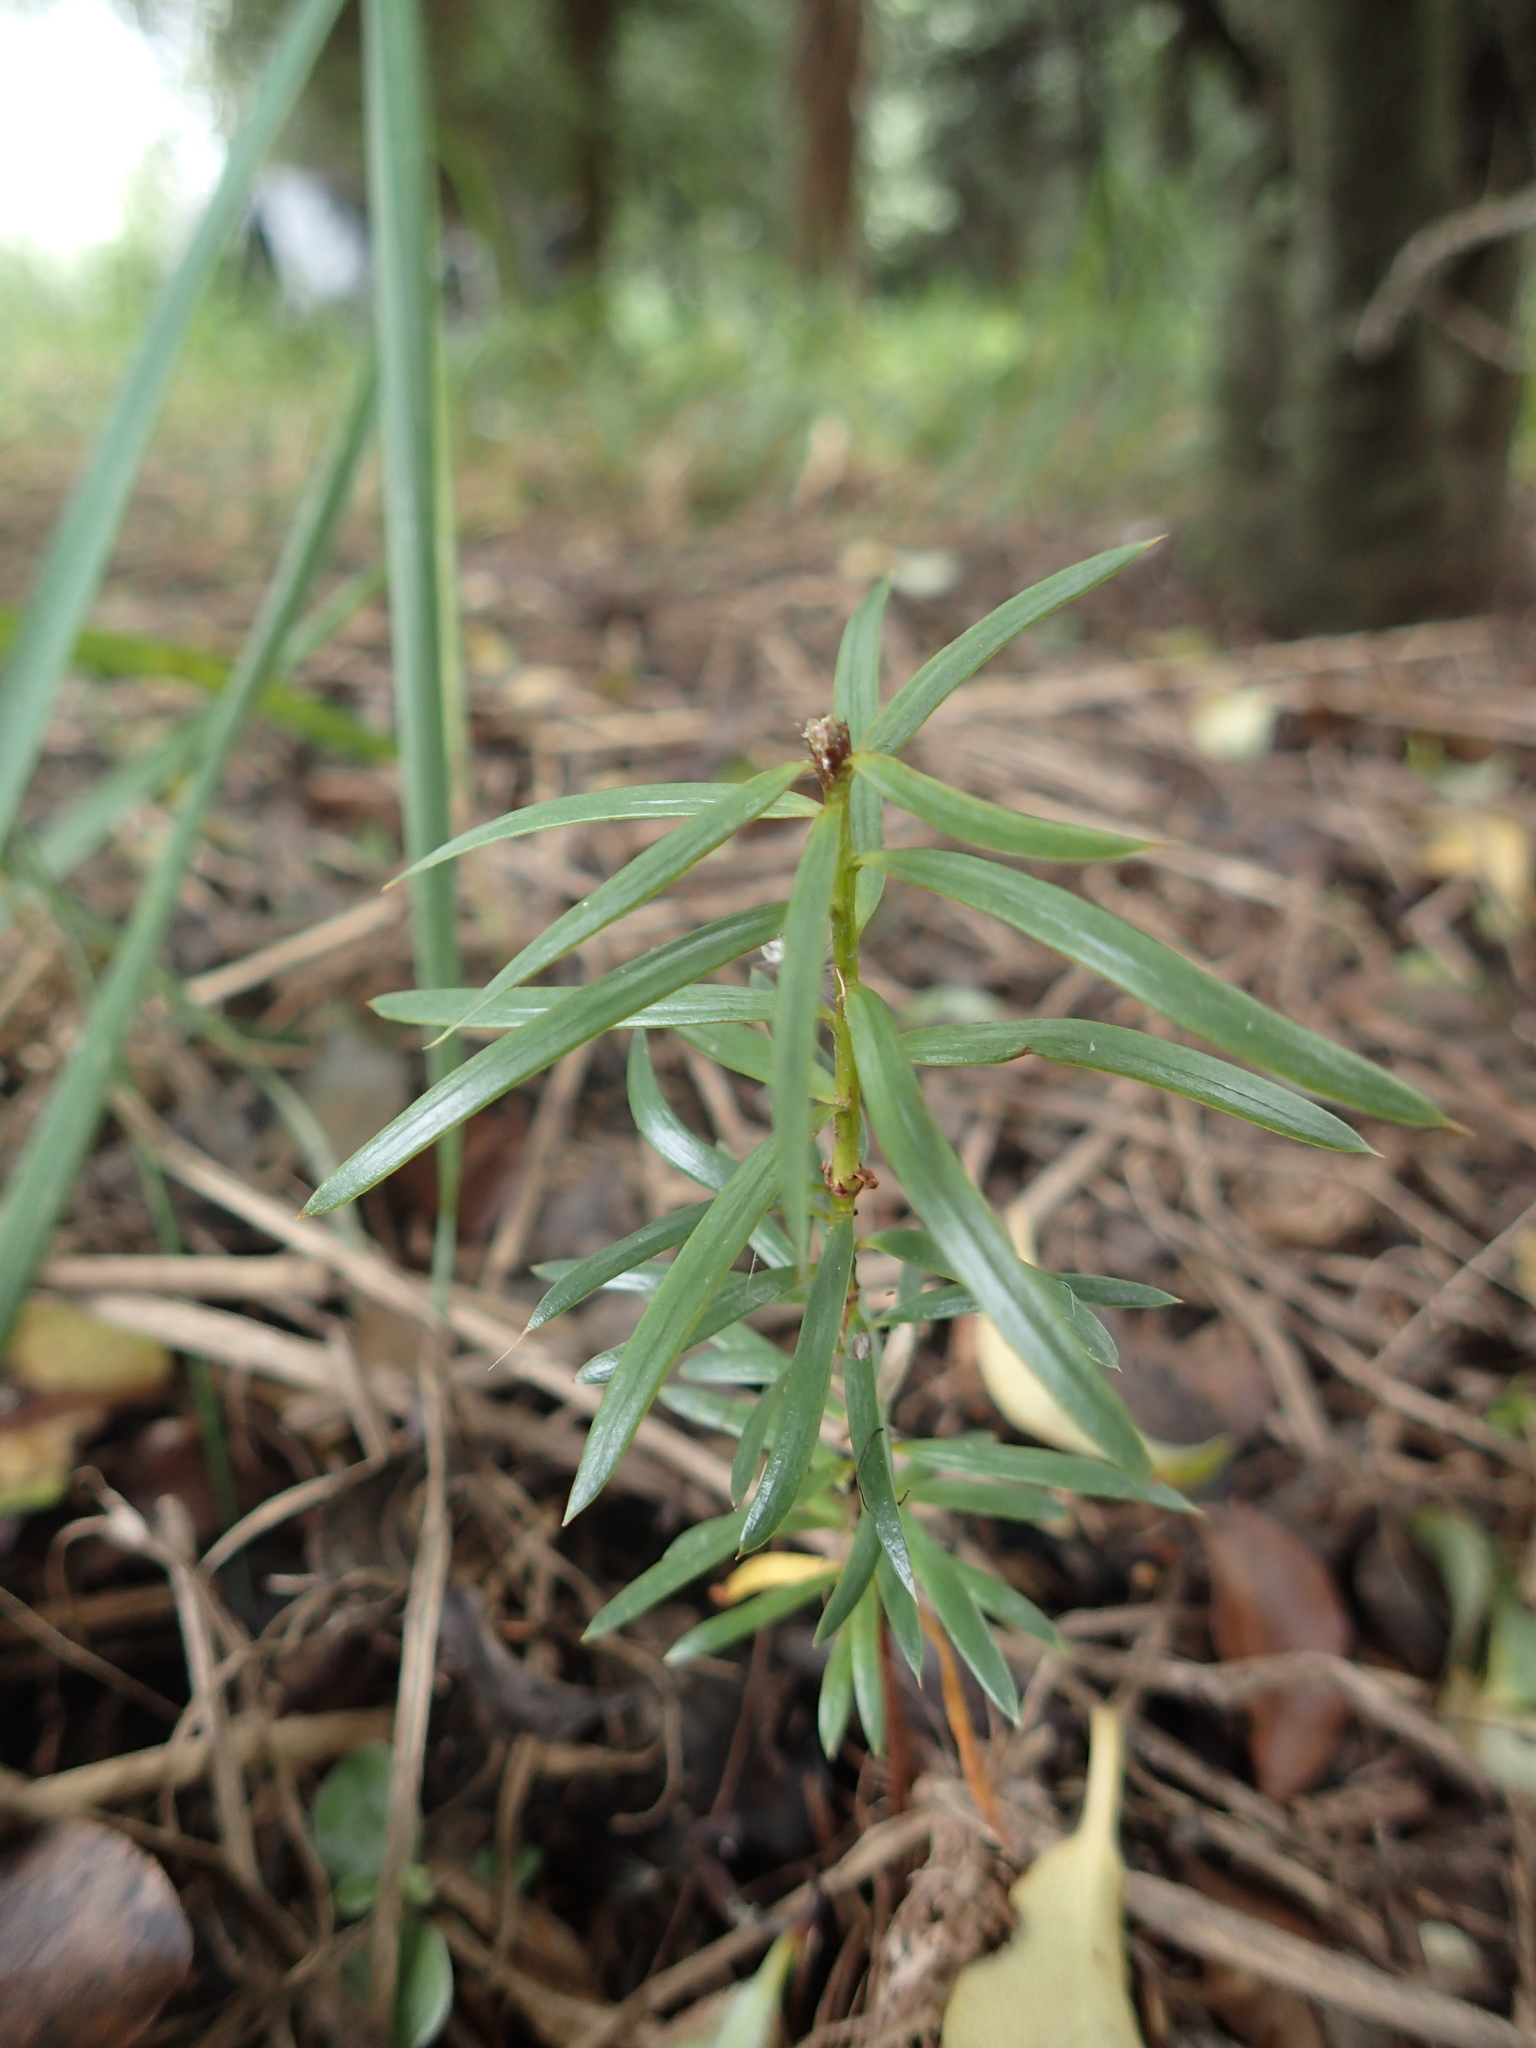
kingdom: Plantae
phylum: Tracheophyta
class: Pinopsida
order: Pinales
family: Podocarpaceae
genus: Podocarpus
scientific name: Podocarpus totara
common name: Totara
